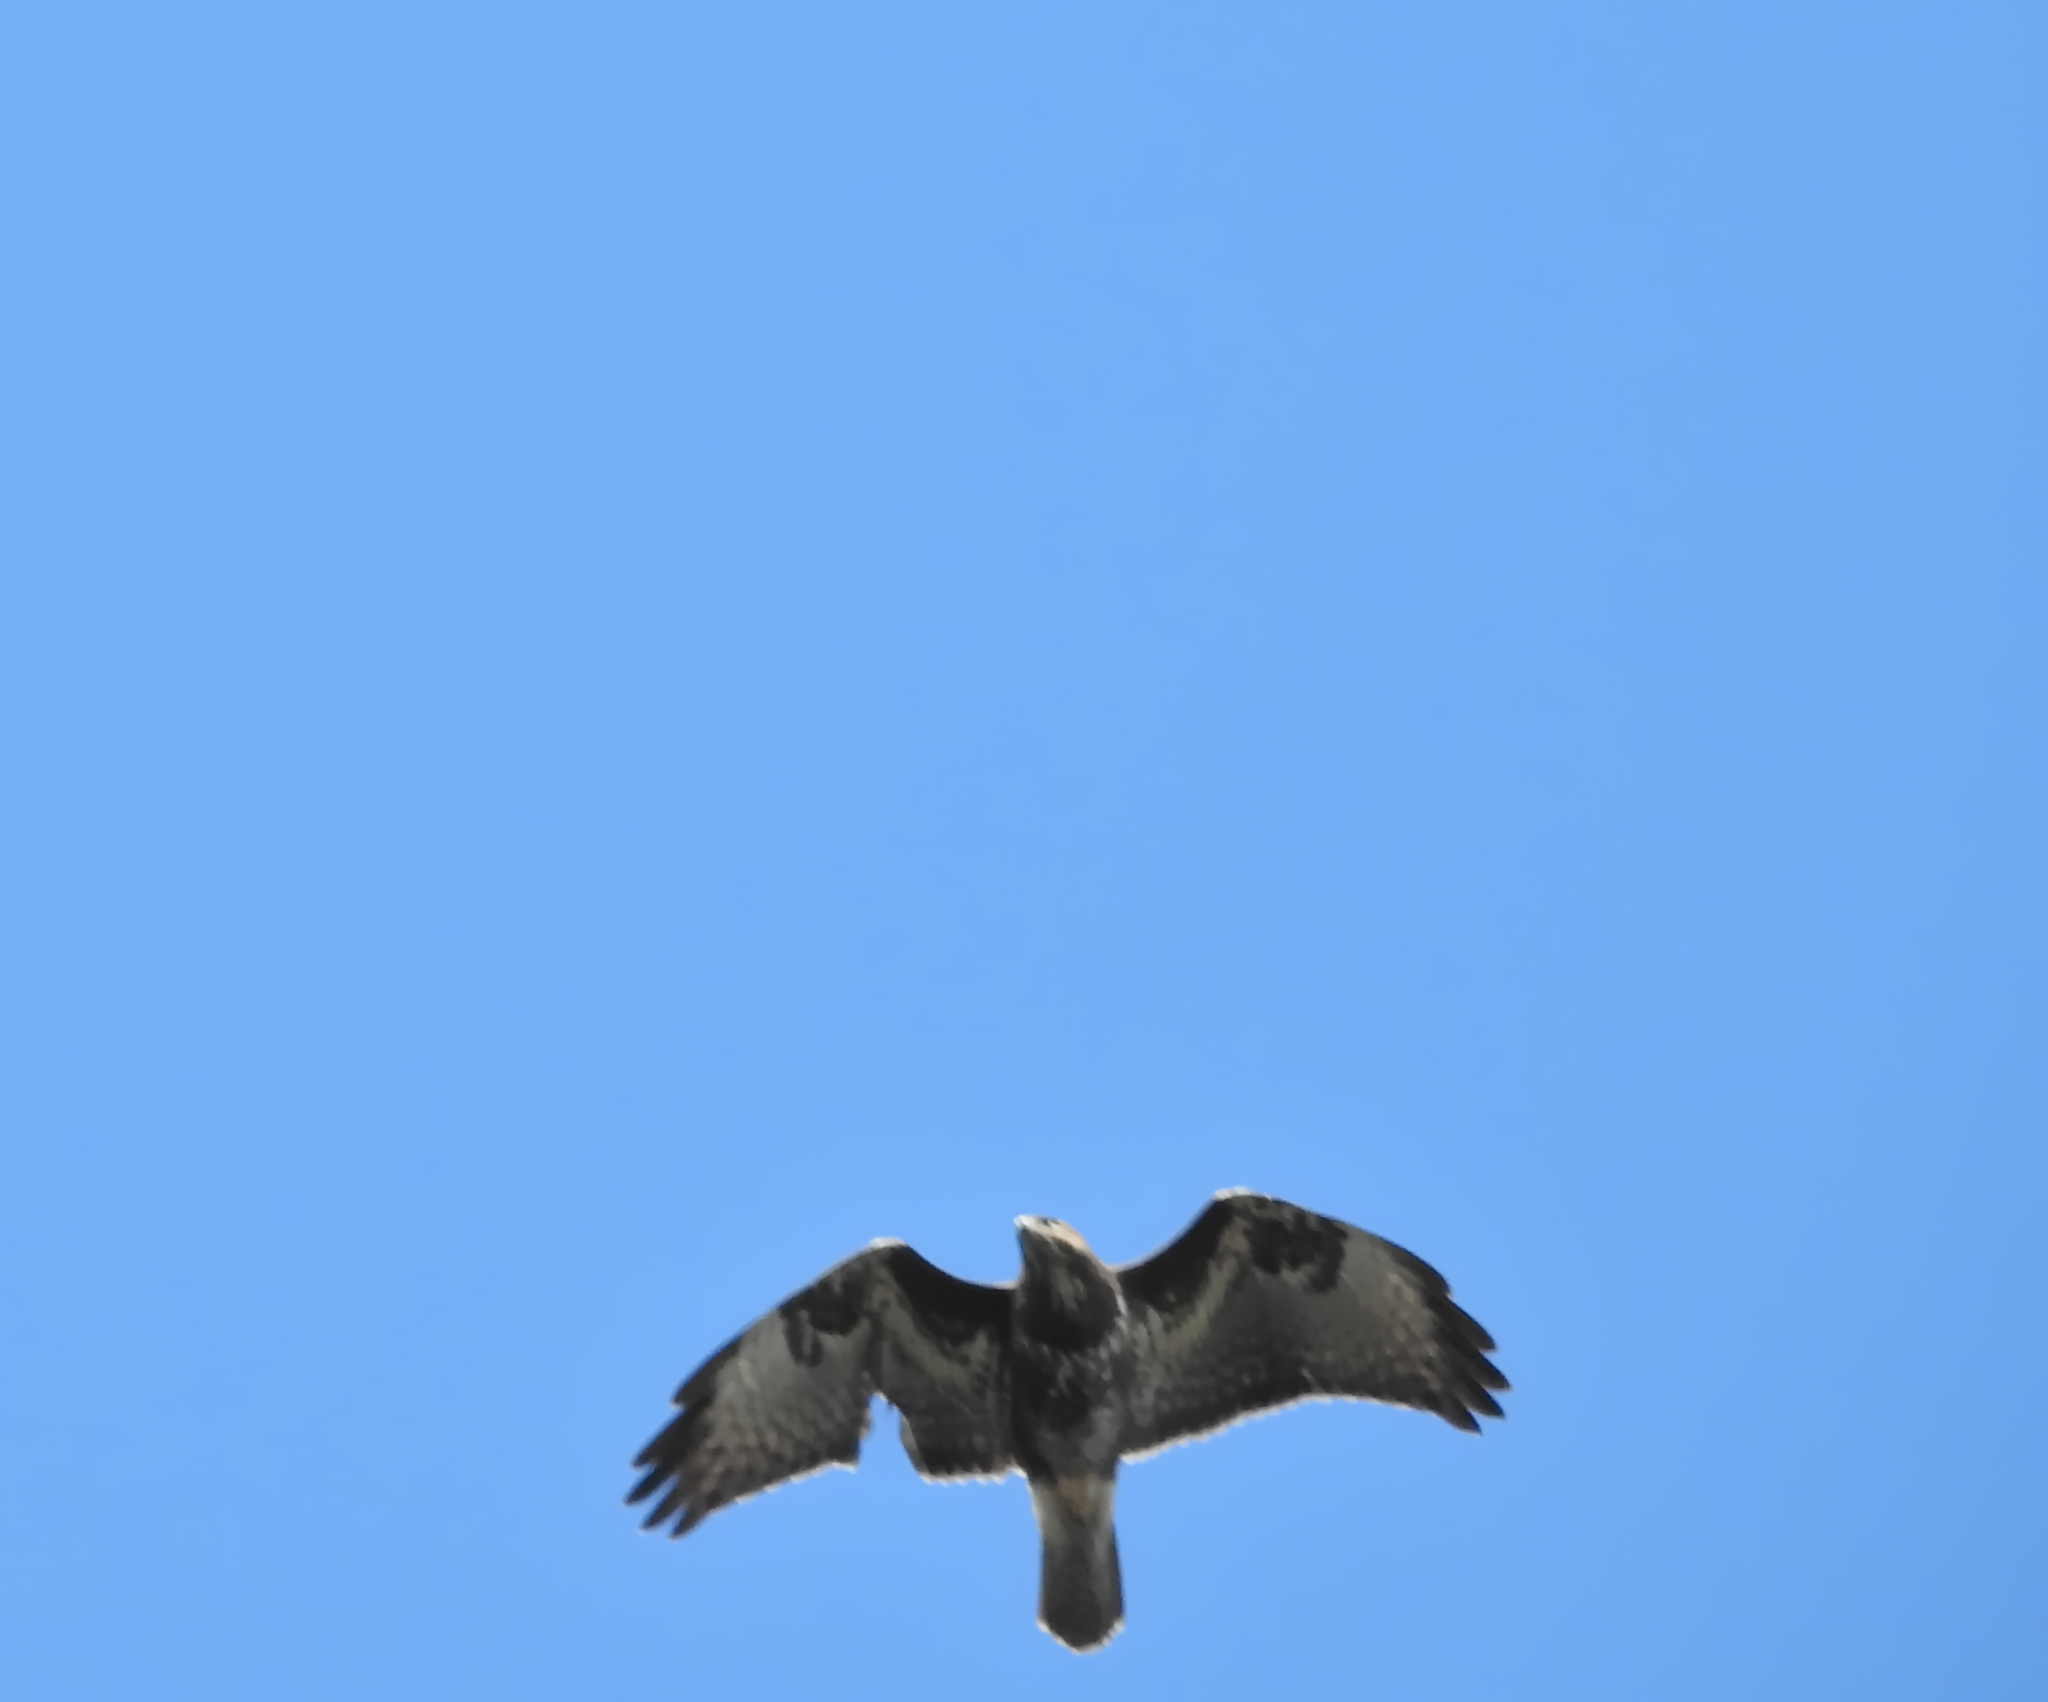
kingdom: Animalia
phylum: Chordata
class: Aves
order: Accipitriformes
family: Accipitridae
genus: Buteo
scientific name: Buteo buteo
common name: Common buzzard
